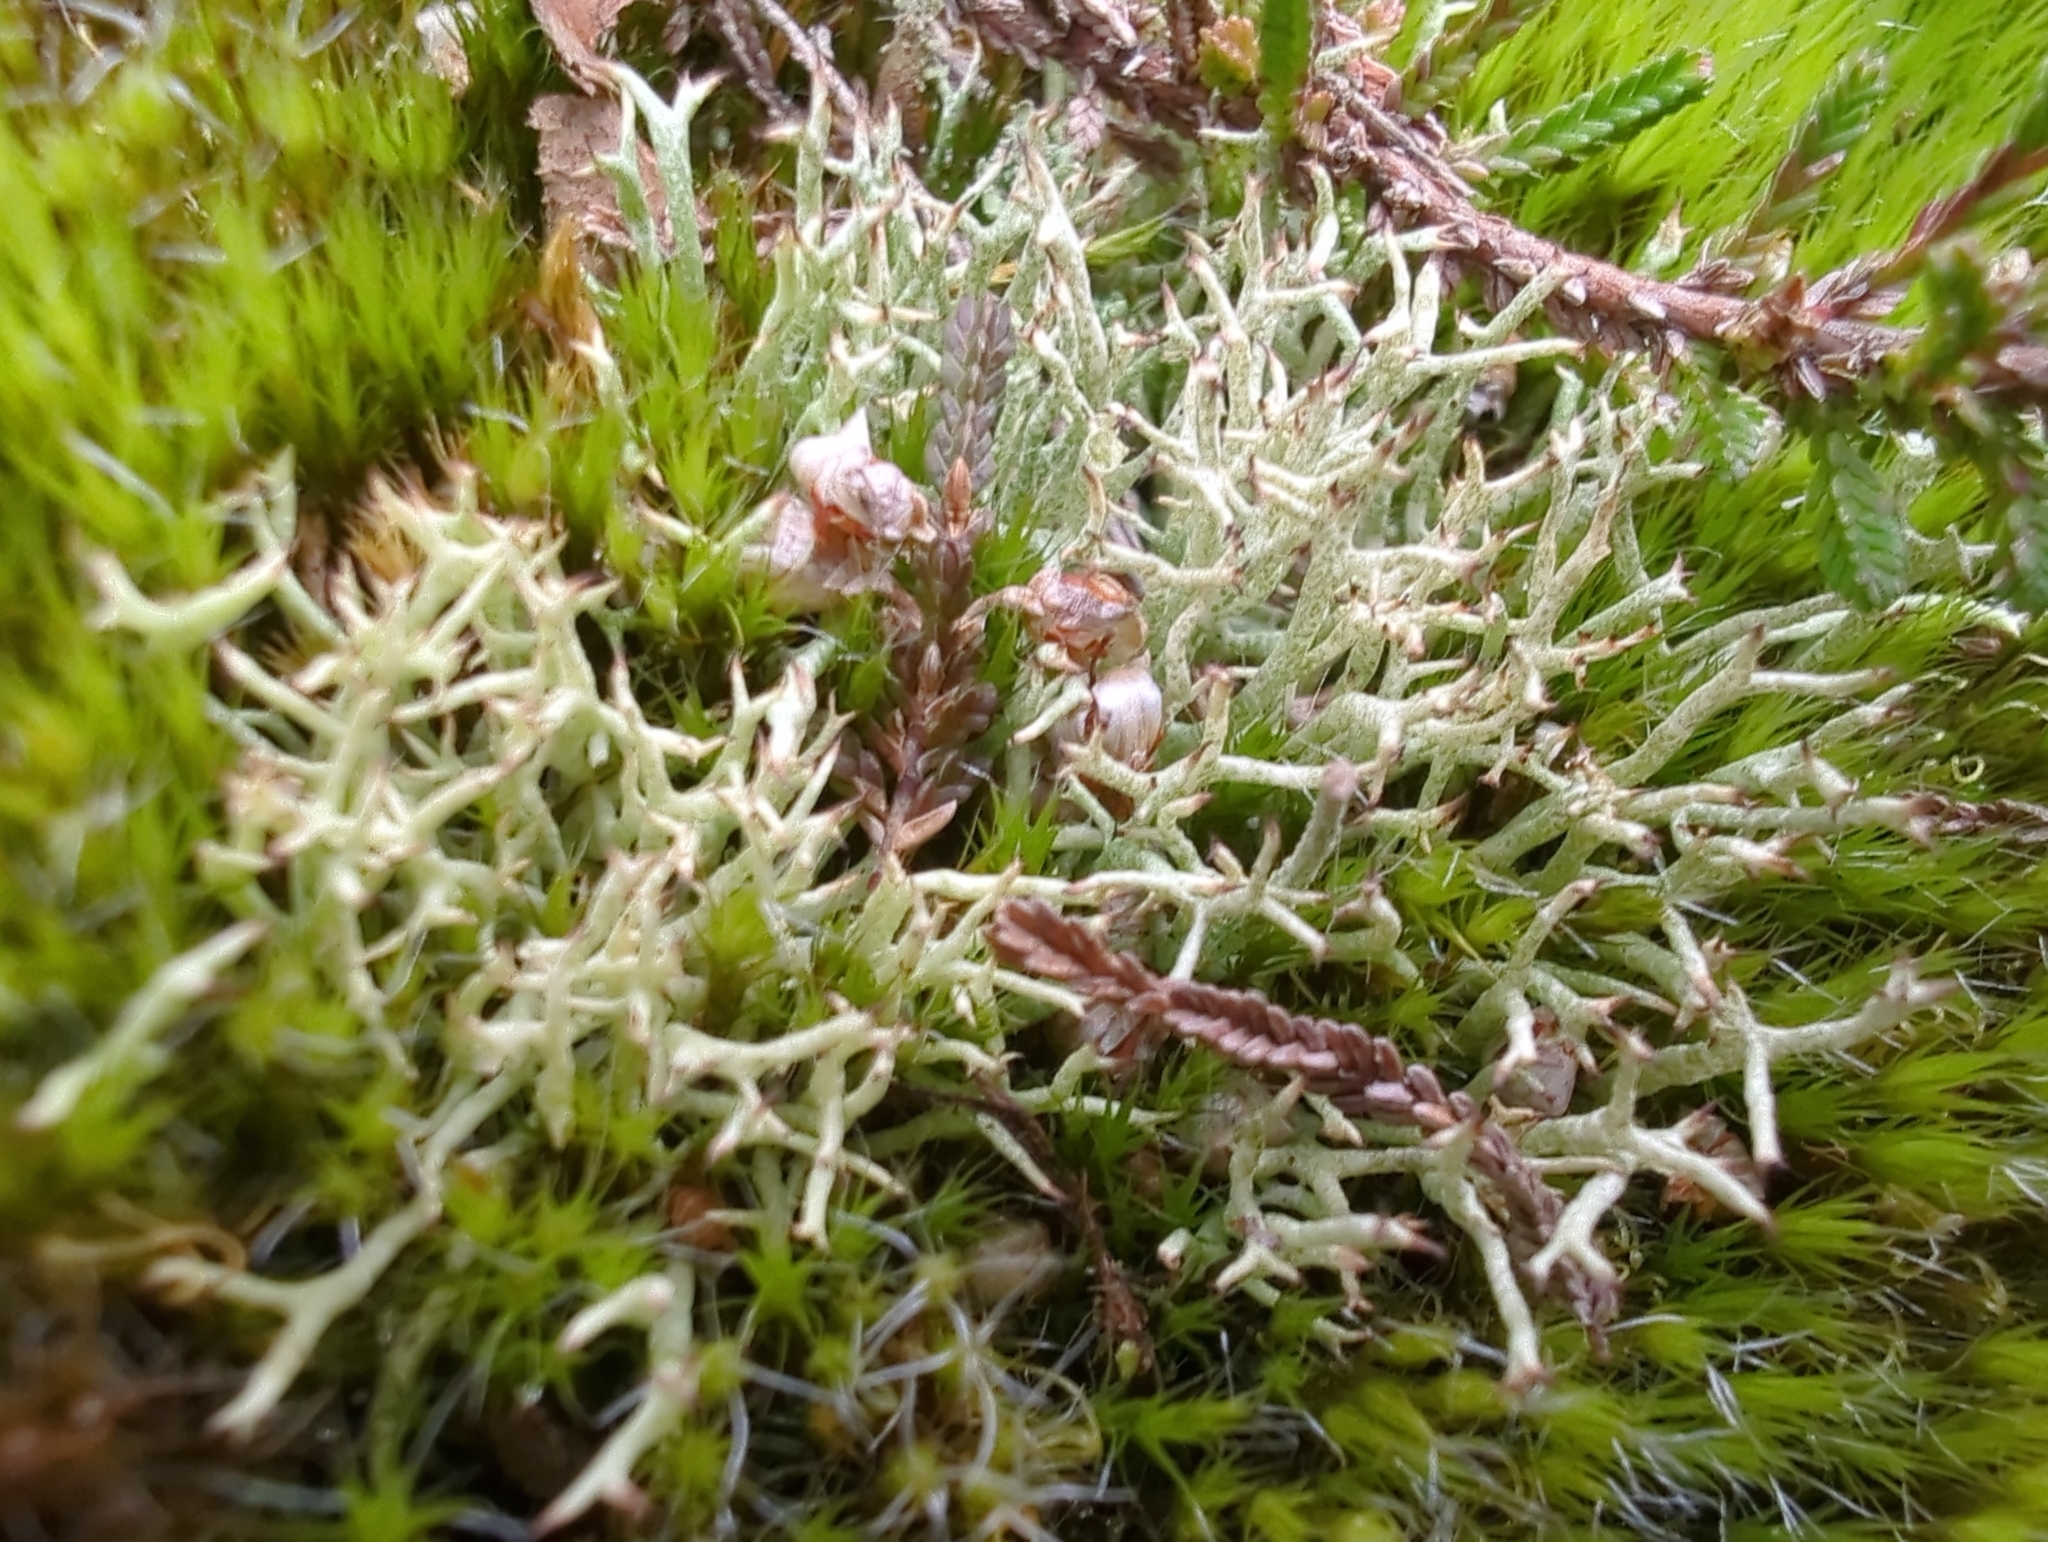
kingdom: Fungi
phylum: Ascomycota
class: Lecanoromycetes
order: Lecanorales
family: Cladoniaceae
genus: Cladonia
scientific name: Cladonia uncialis
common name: Thorn lichen
